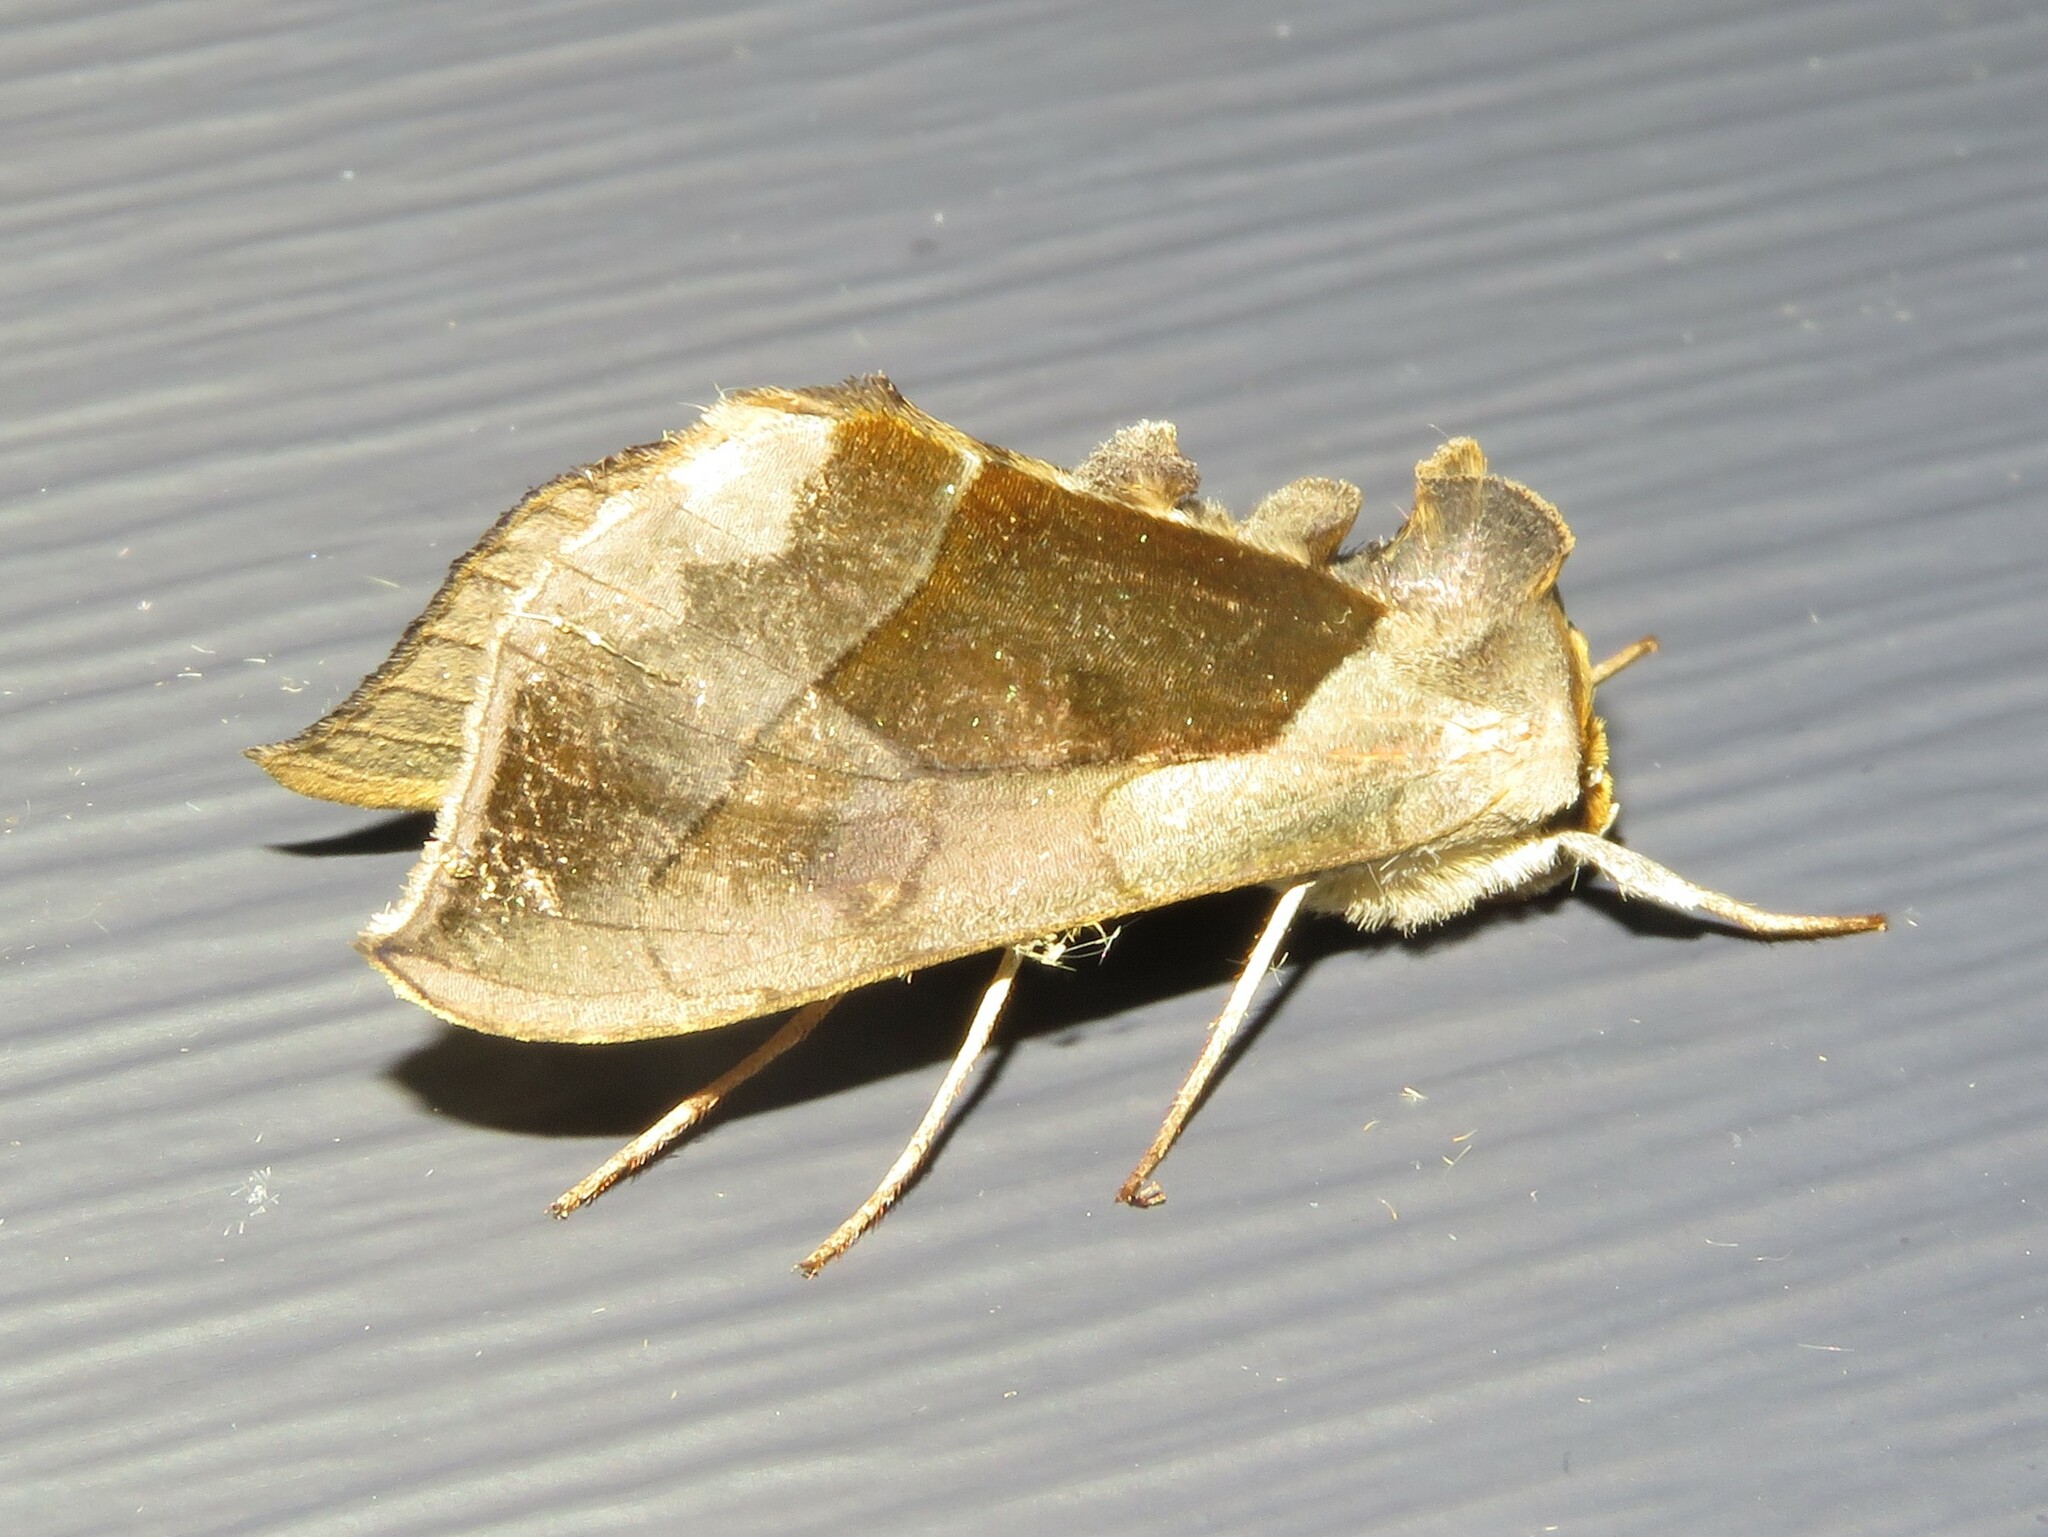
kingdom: Animalia
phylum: Arthropoda
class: Insecta
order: Lepidoptera
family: Noctuidae
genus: Diachrysia
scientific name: Diachrysia balluca
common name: Green-patched looper moth
